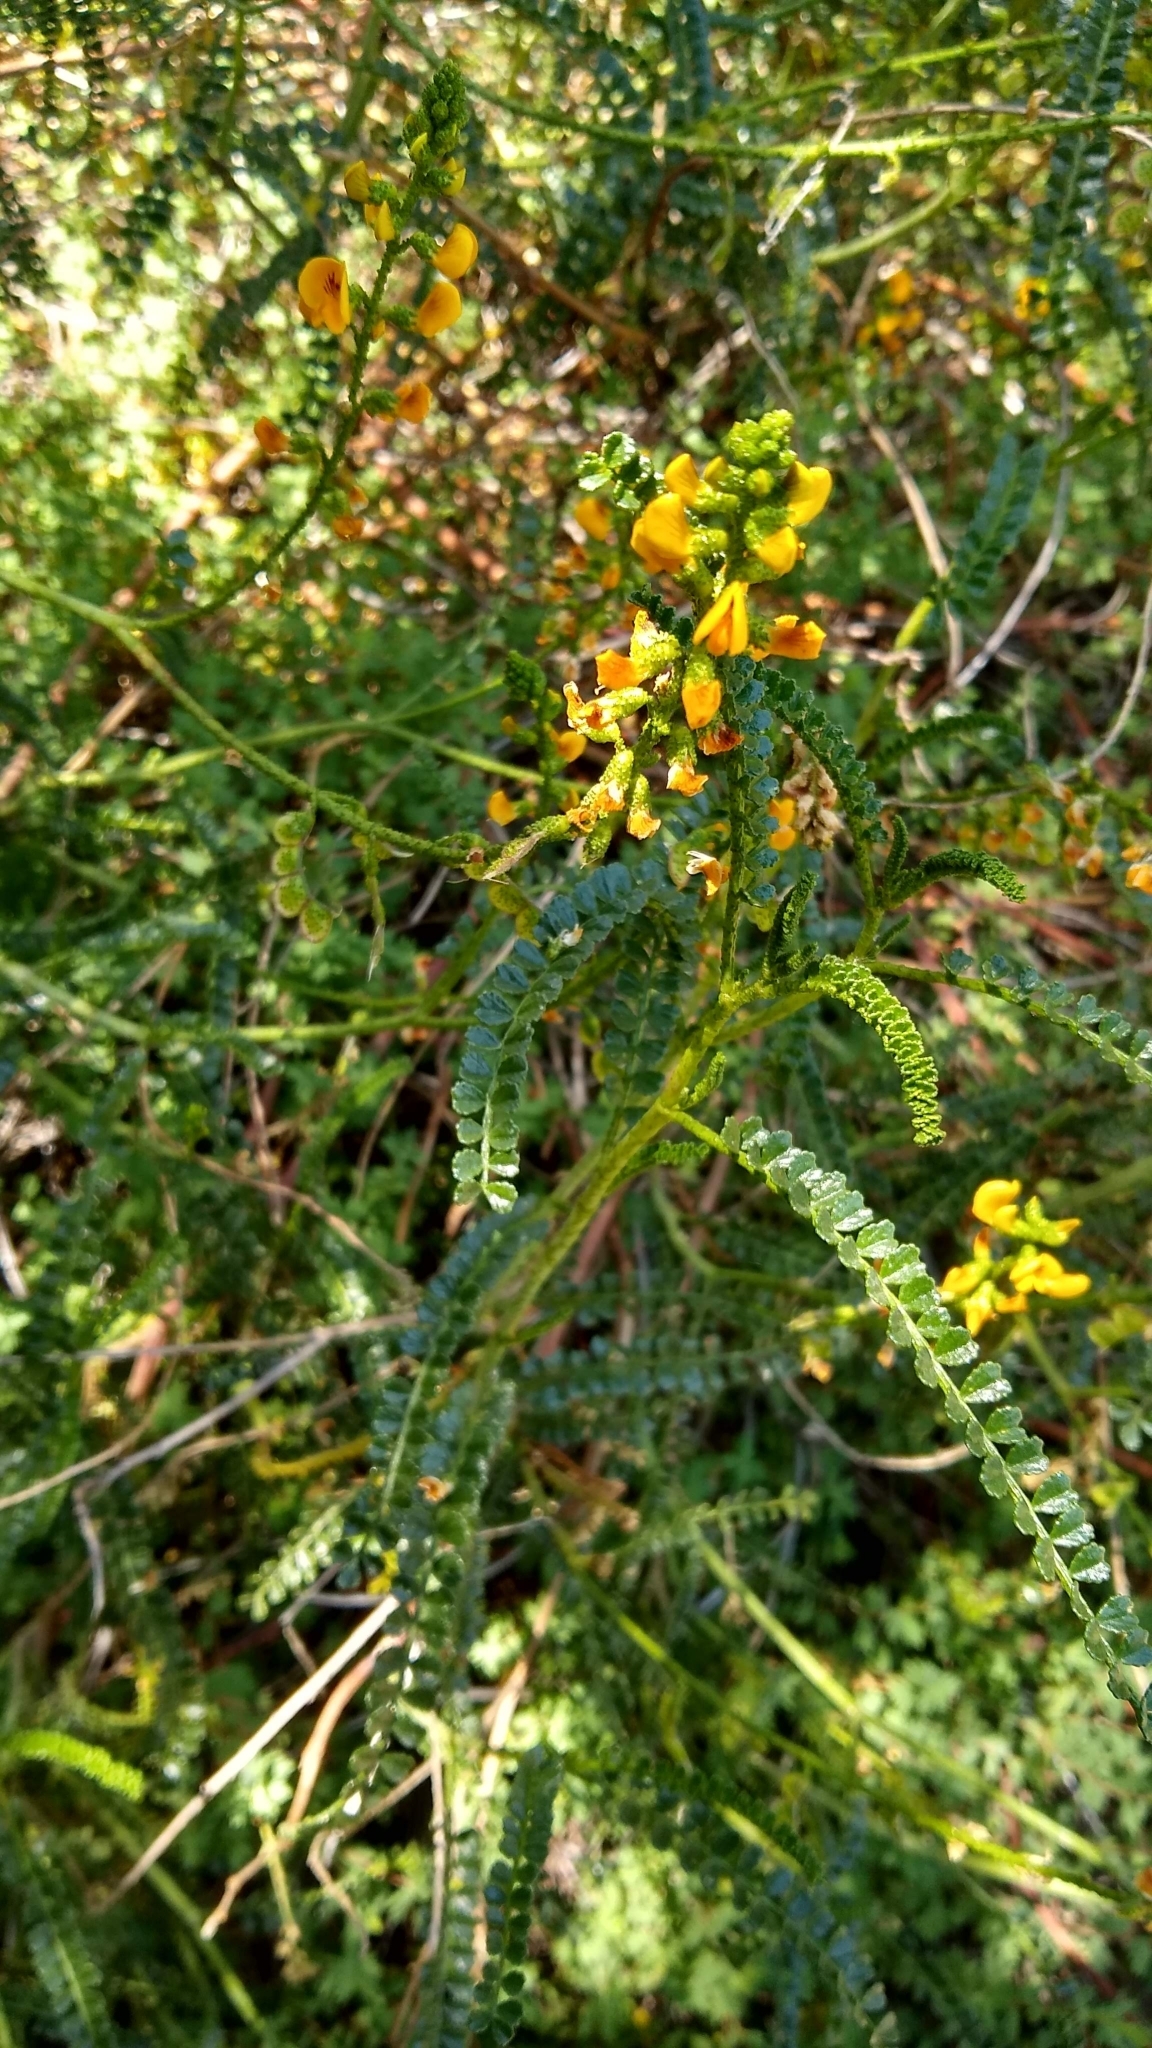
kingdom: Plantae
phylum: Tracheophyta
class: Magnoliopsida
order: Fabales
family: Fabaceae
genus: Adesmia
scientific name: Adesmia boronioides
